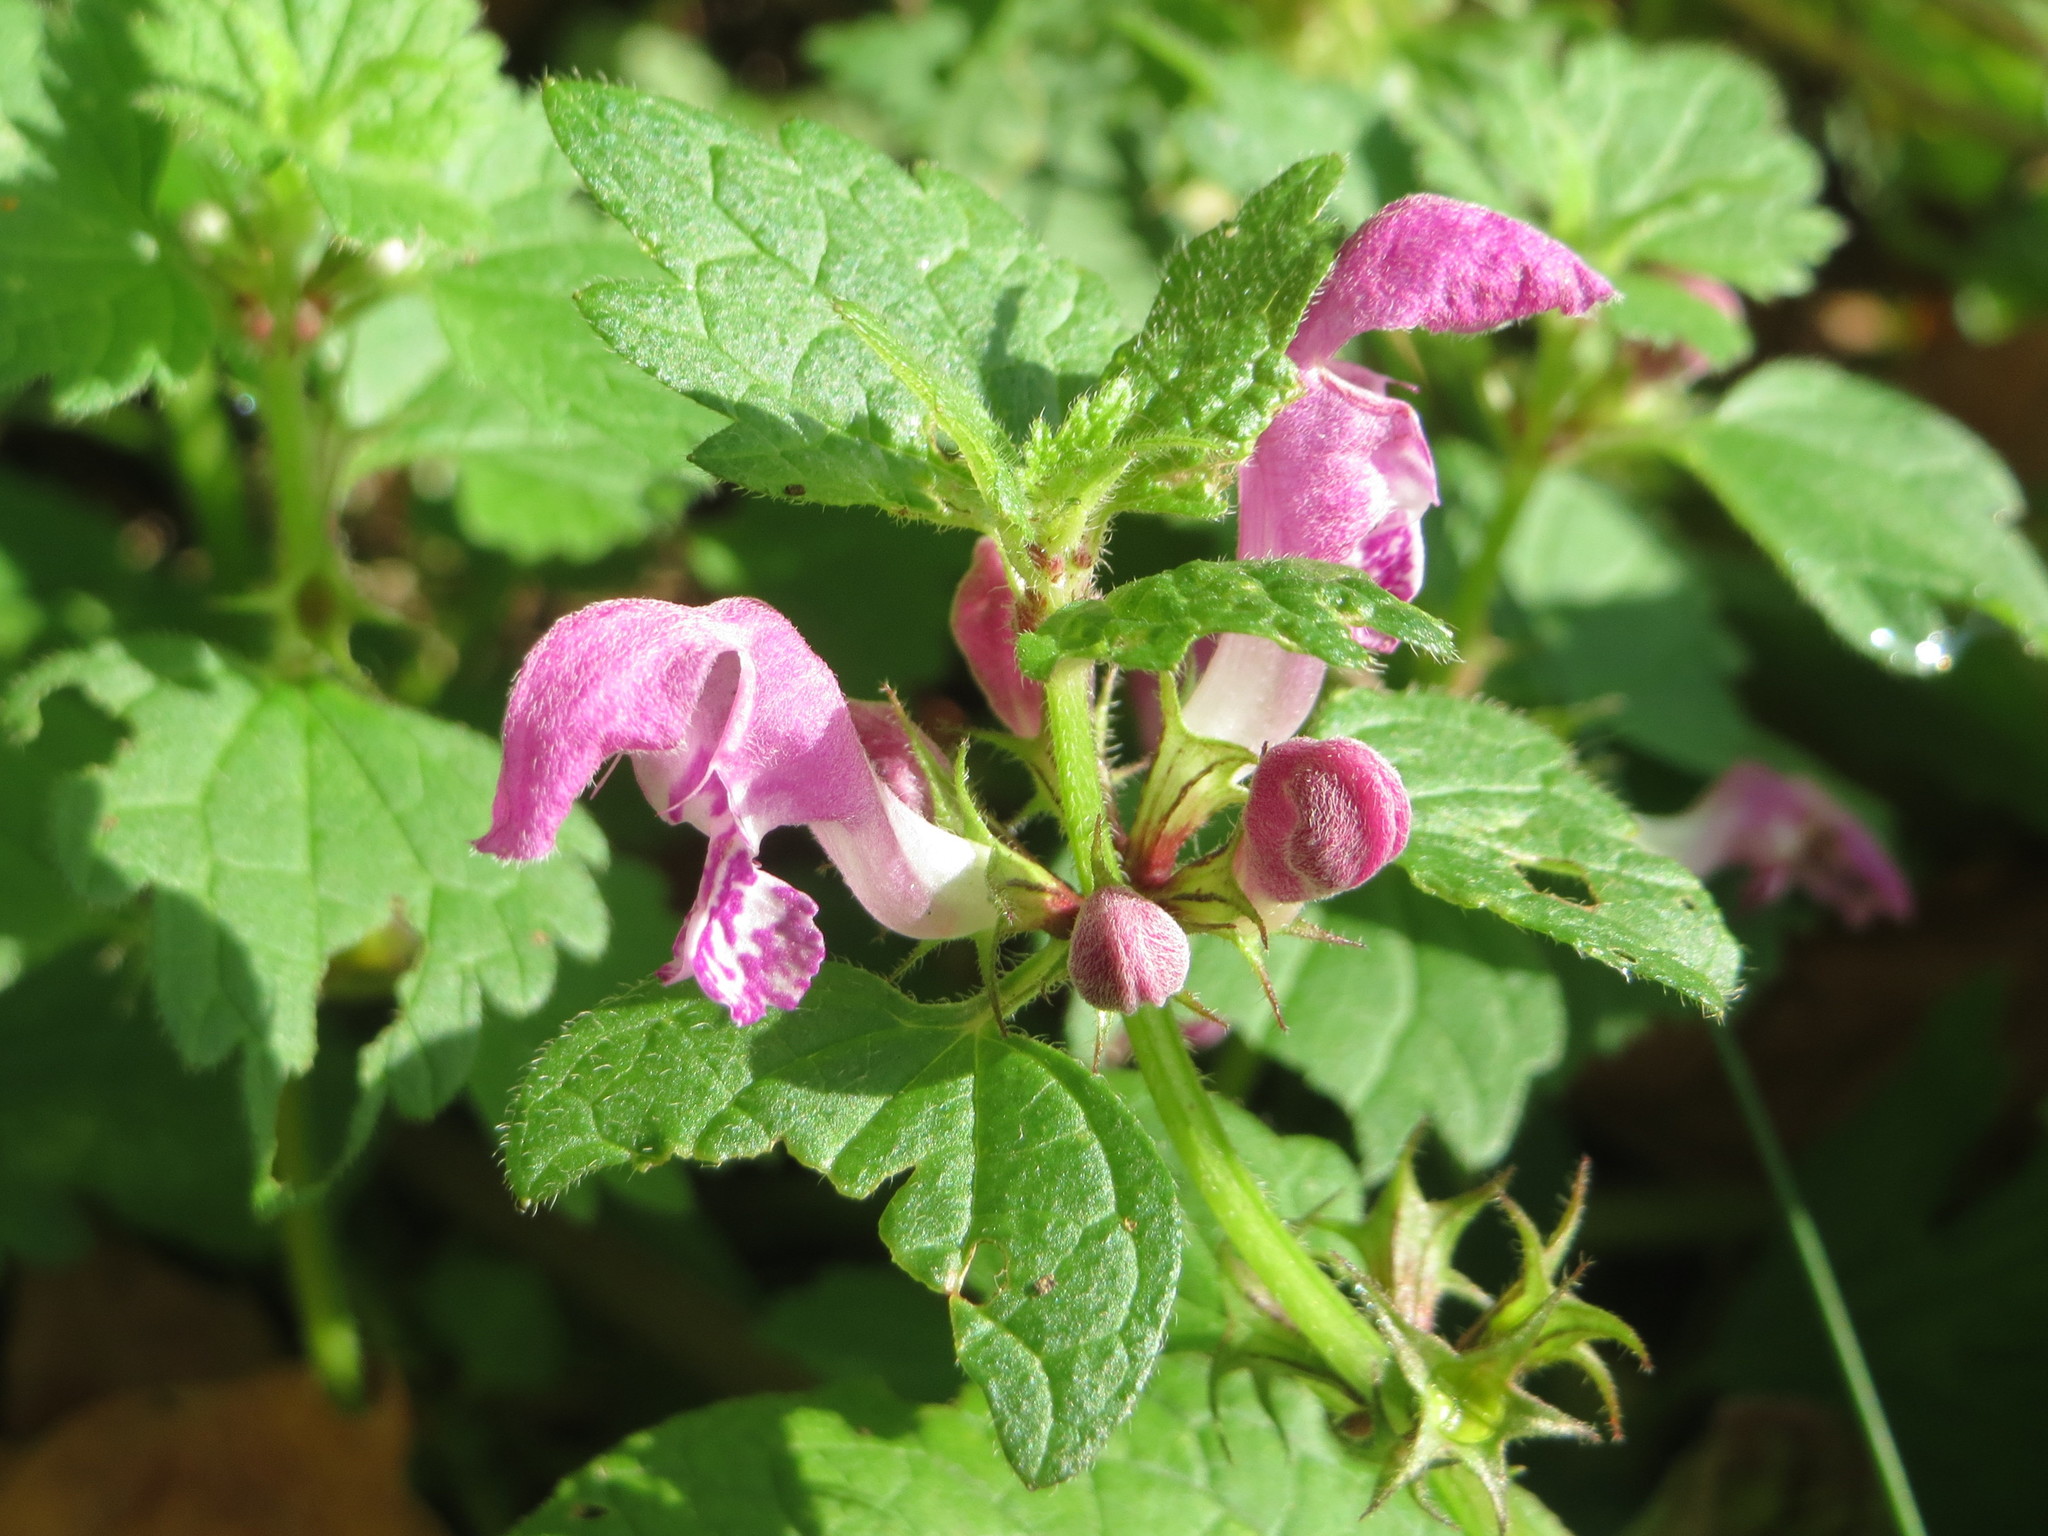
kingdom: Plantae
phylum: Tracheophyta
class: Magnoliopsida
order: Lamiales
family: Lamiaceae
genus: Lamium
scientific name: Lamium maculatum
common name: Spotted dead-nettle
